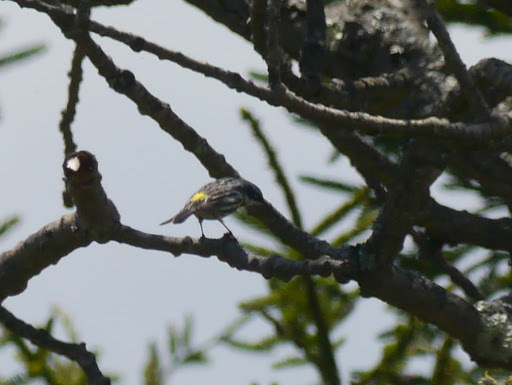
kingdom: Animalia
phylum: Chordata
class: Aves
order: Passeriformes
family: Parulidae
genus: Setophaga
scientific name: Setophaga coronata
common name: Myrtle warbler
